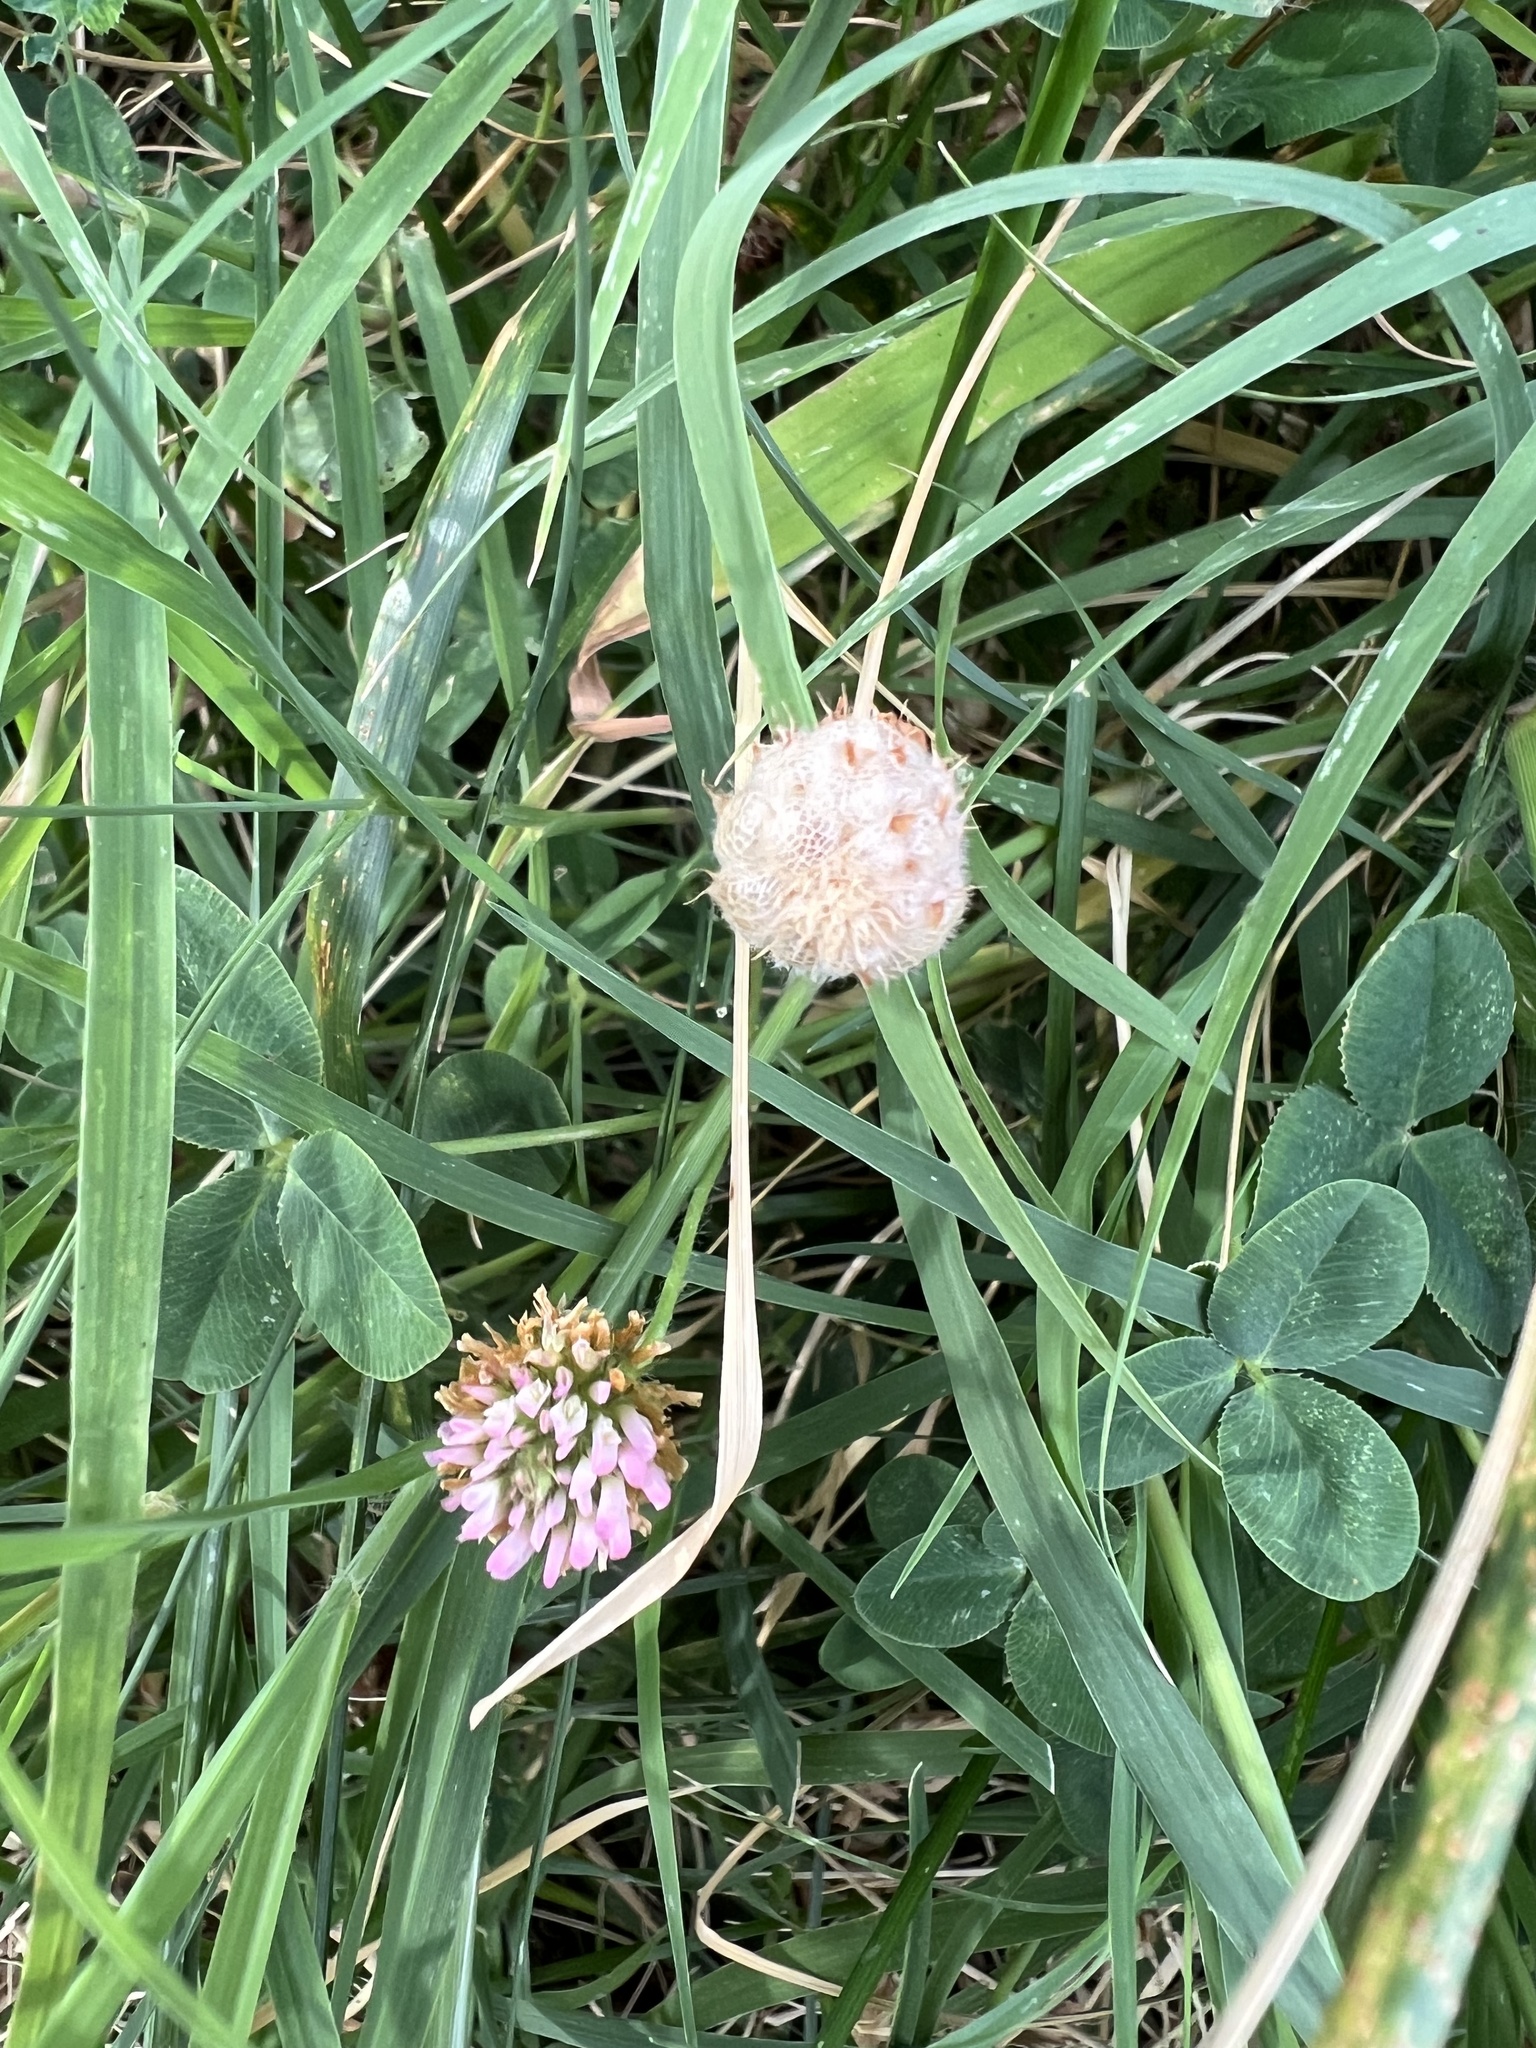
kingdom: Plantae
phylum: Tracheophyta
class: Magnoliopsida
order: Fabales
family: Fabaceae
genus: Trifolium
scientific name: Trifolium fragiferum
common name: Strawberry clover
